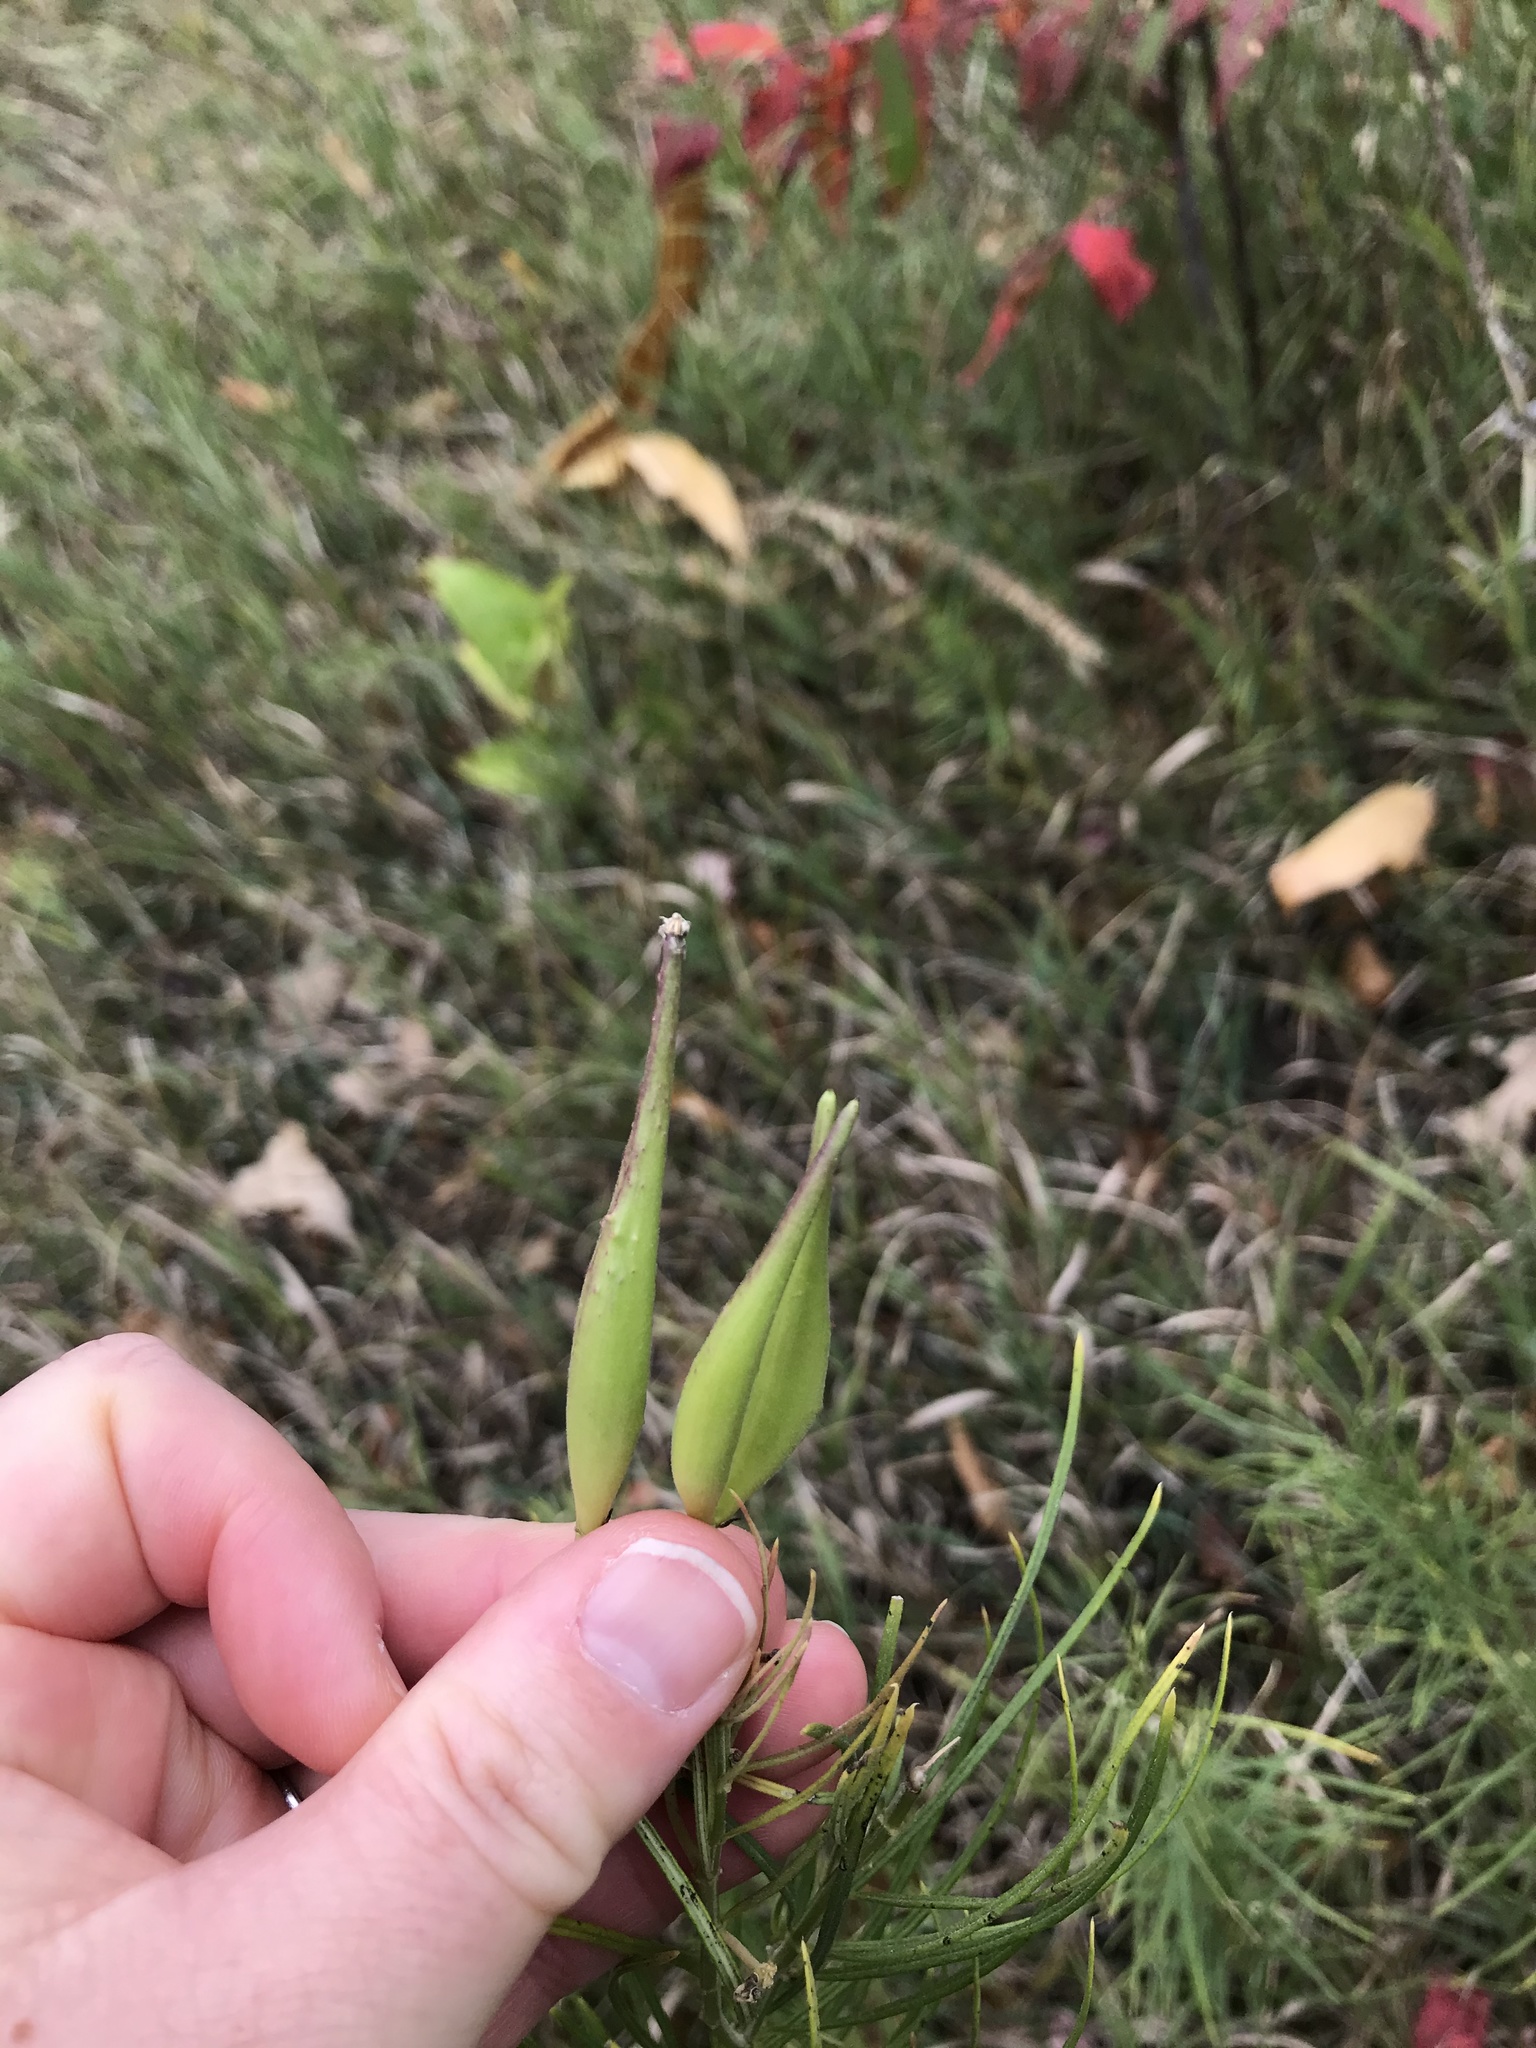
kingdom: Plantae
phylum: Tracheophyta
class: Magnoliopsida
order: Gentianales
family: Apocynaceae
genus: Asclepias
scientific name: Asclepias verticillata
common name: Eastern whorled milkweed
